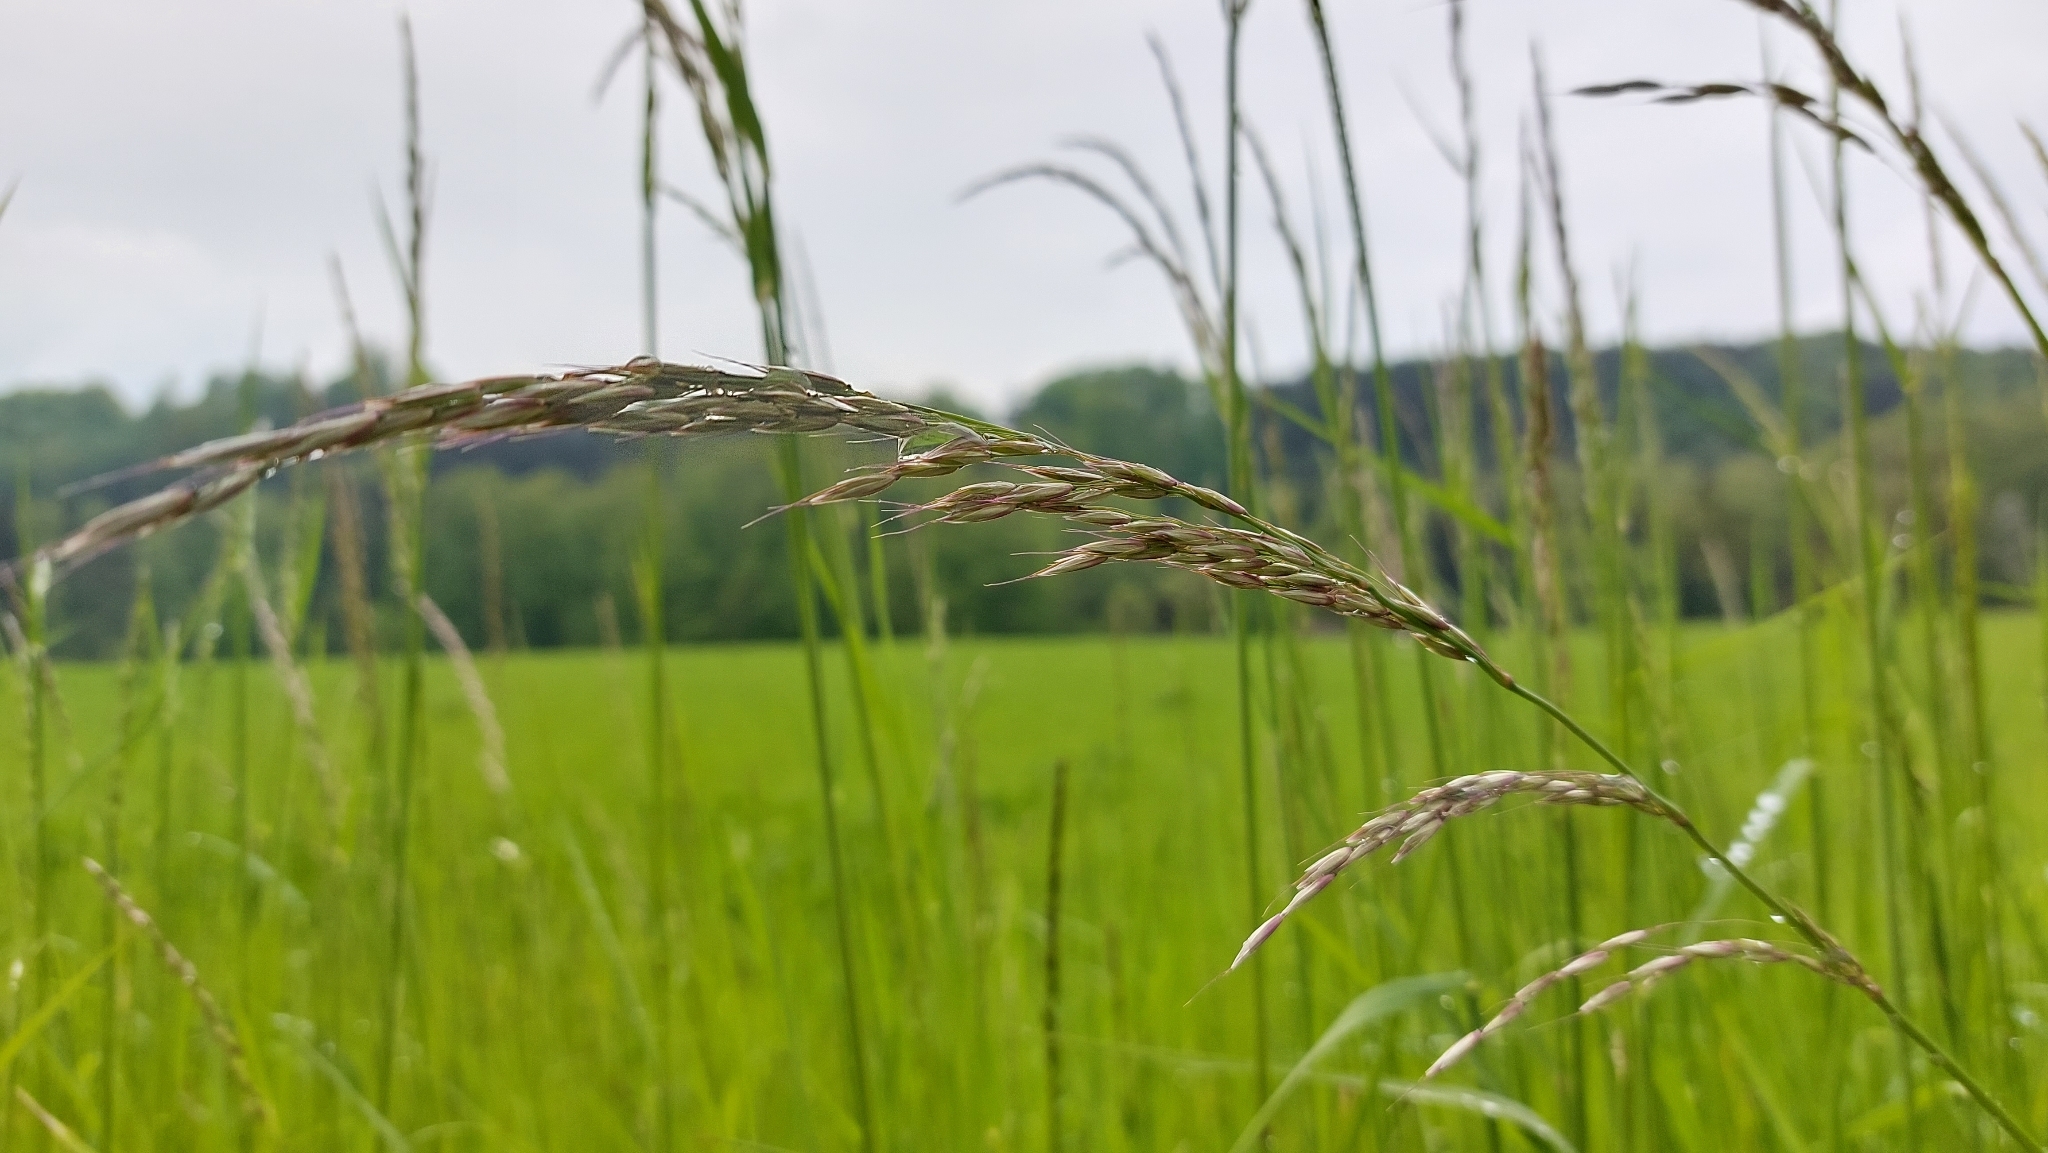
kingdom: Plantae
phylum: Tracheophyta
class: Liliopsida
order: Poales
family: Poaceae
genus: Arrhenatherum
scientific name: Arrhenatherum elatius
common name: Tall oatgrass
